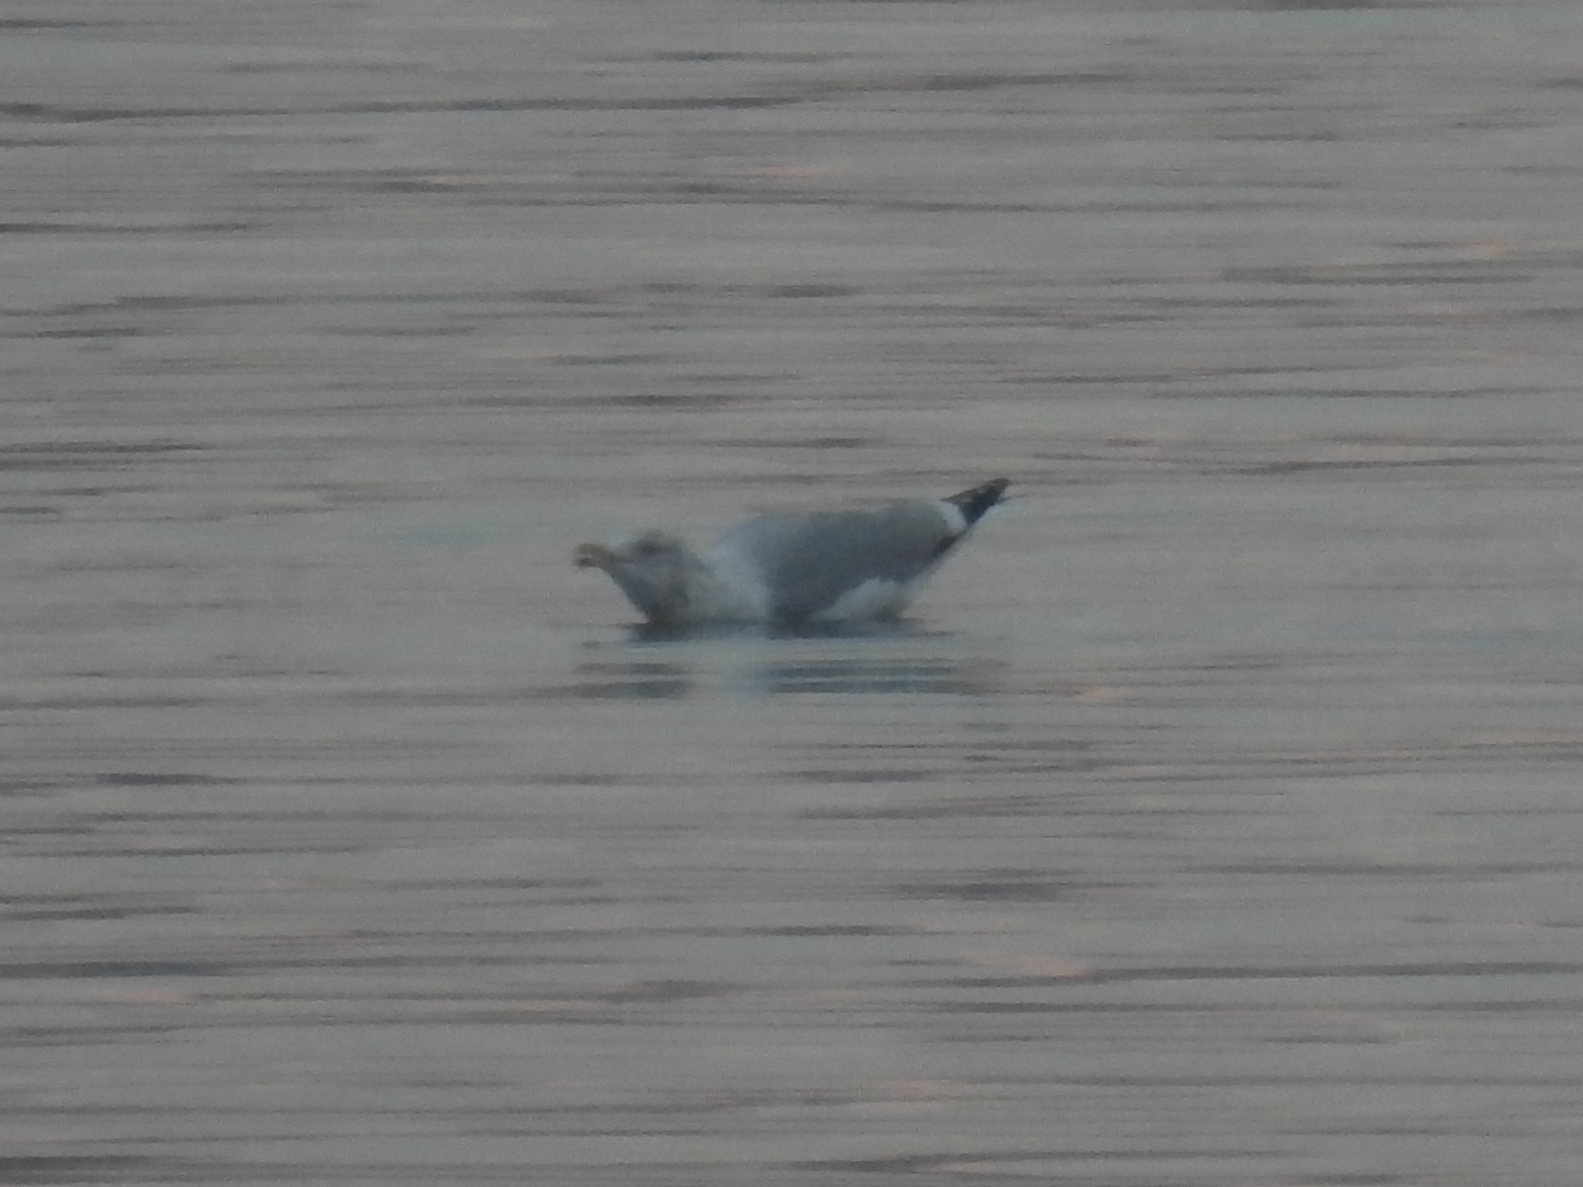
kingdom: Animalia
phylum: Chordata
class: Aves
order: Charadriiformes
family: Laridae
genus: Larus
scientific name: Larus argentatus
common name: Herring gull
